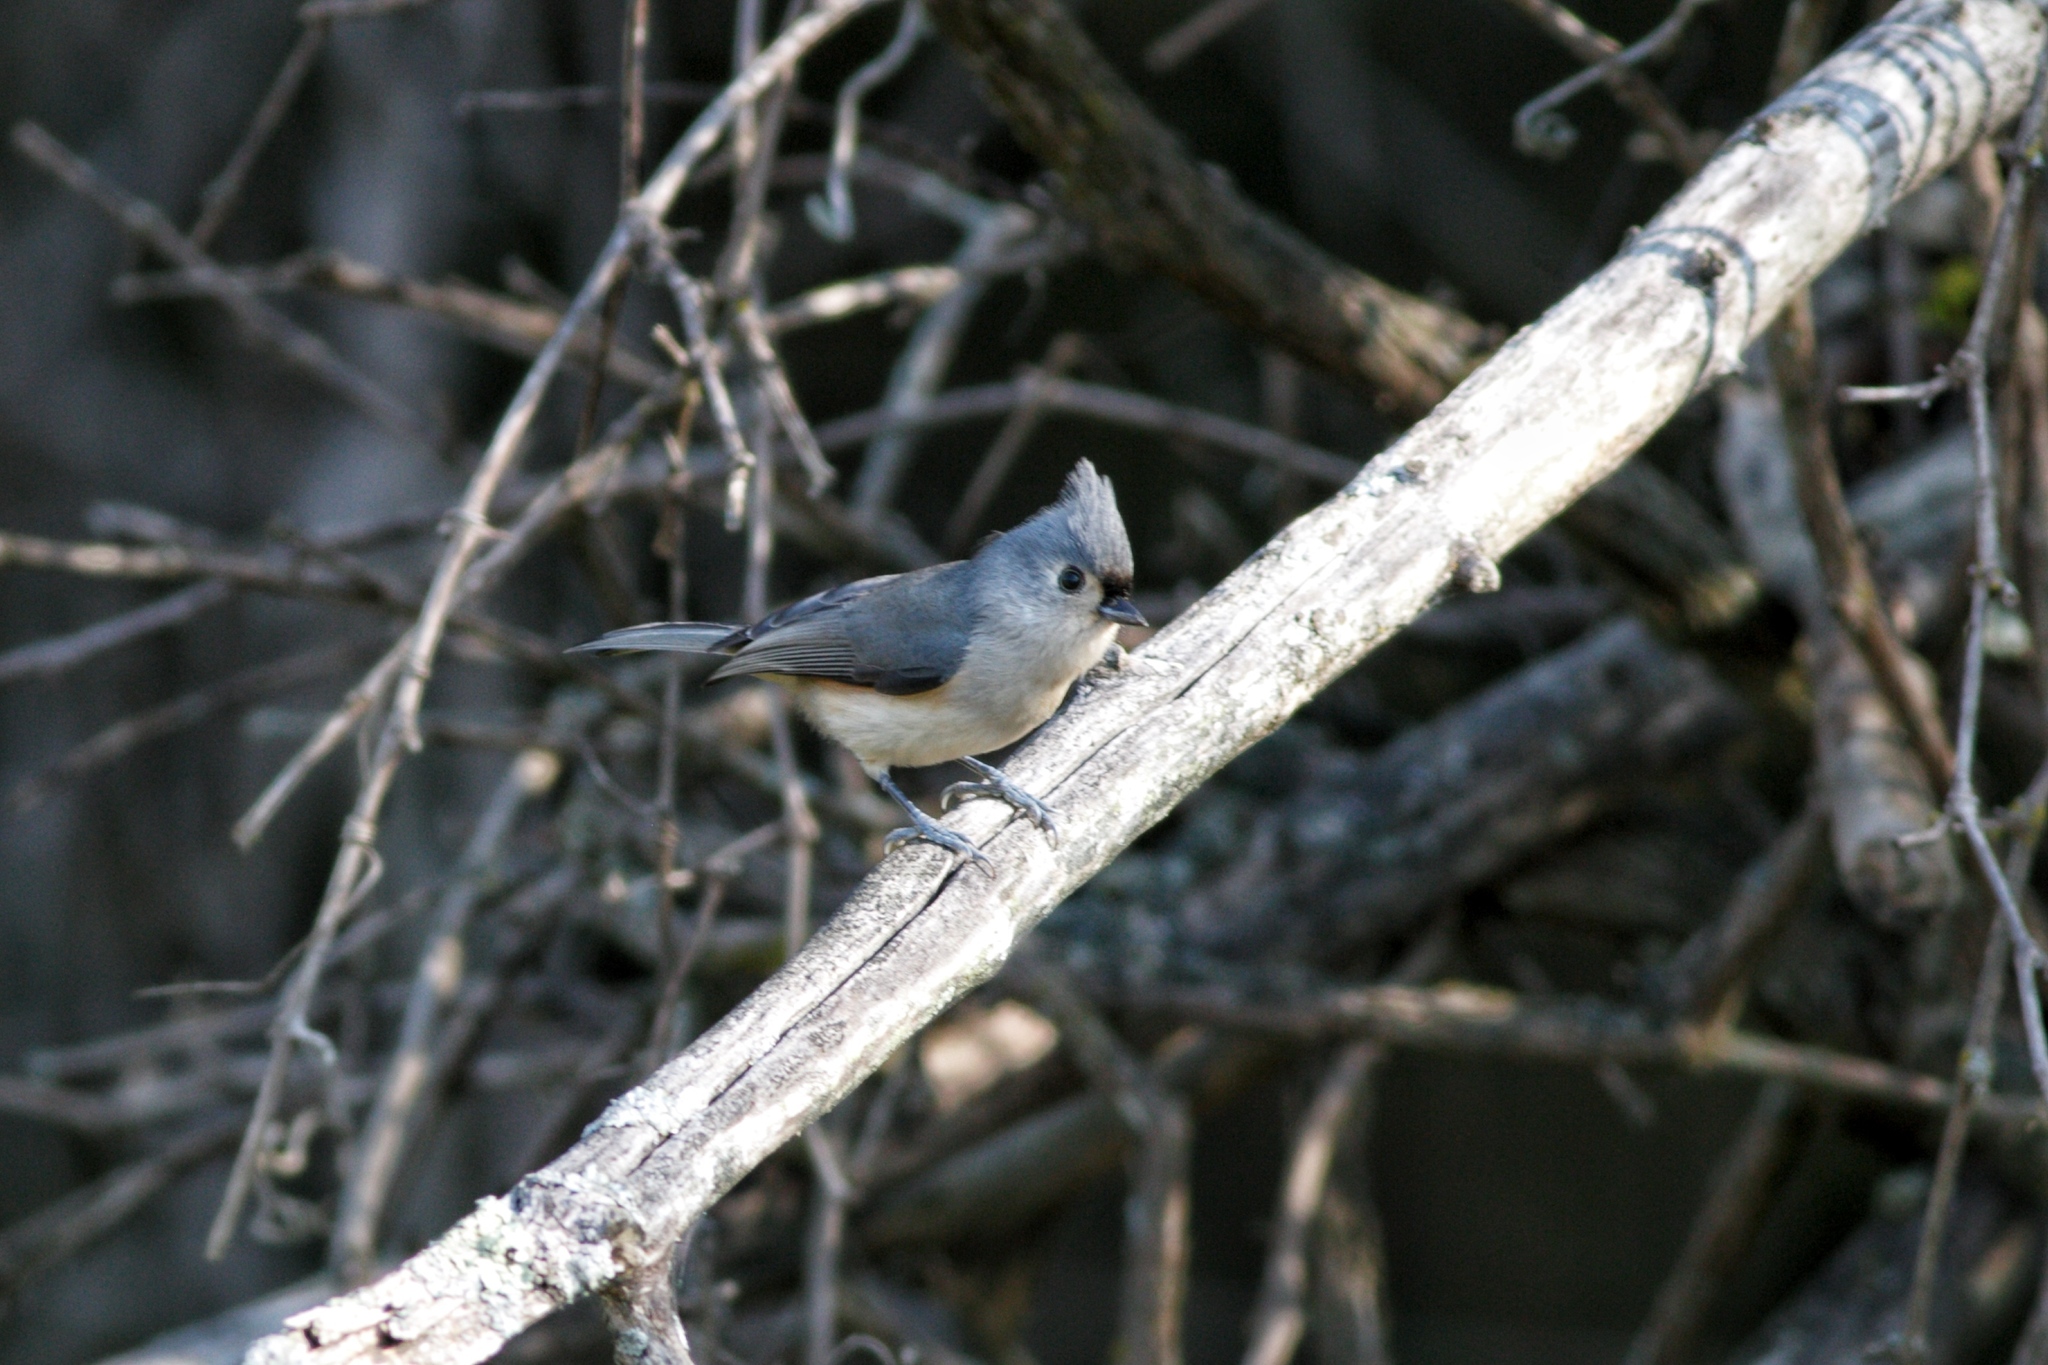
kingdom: Animalia
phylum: Chordata
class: Aves
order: Passeriformes
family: Paridae
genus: Baeolophus
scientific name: Baeolophus bicolor
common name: Tufted titmouse
